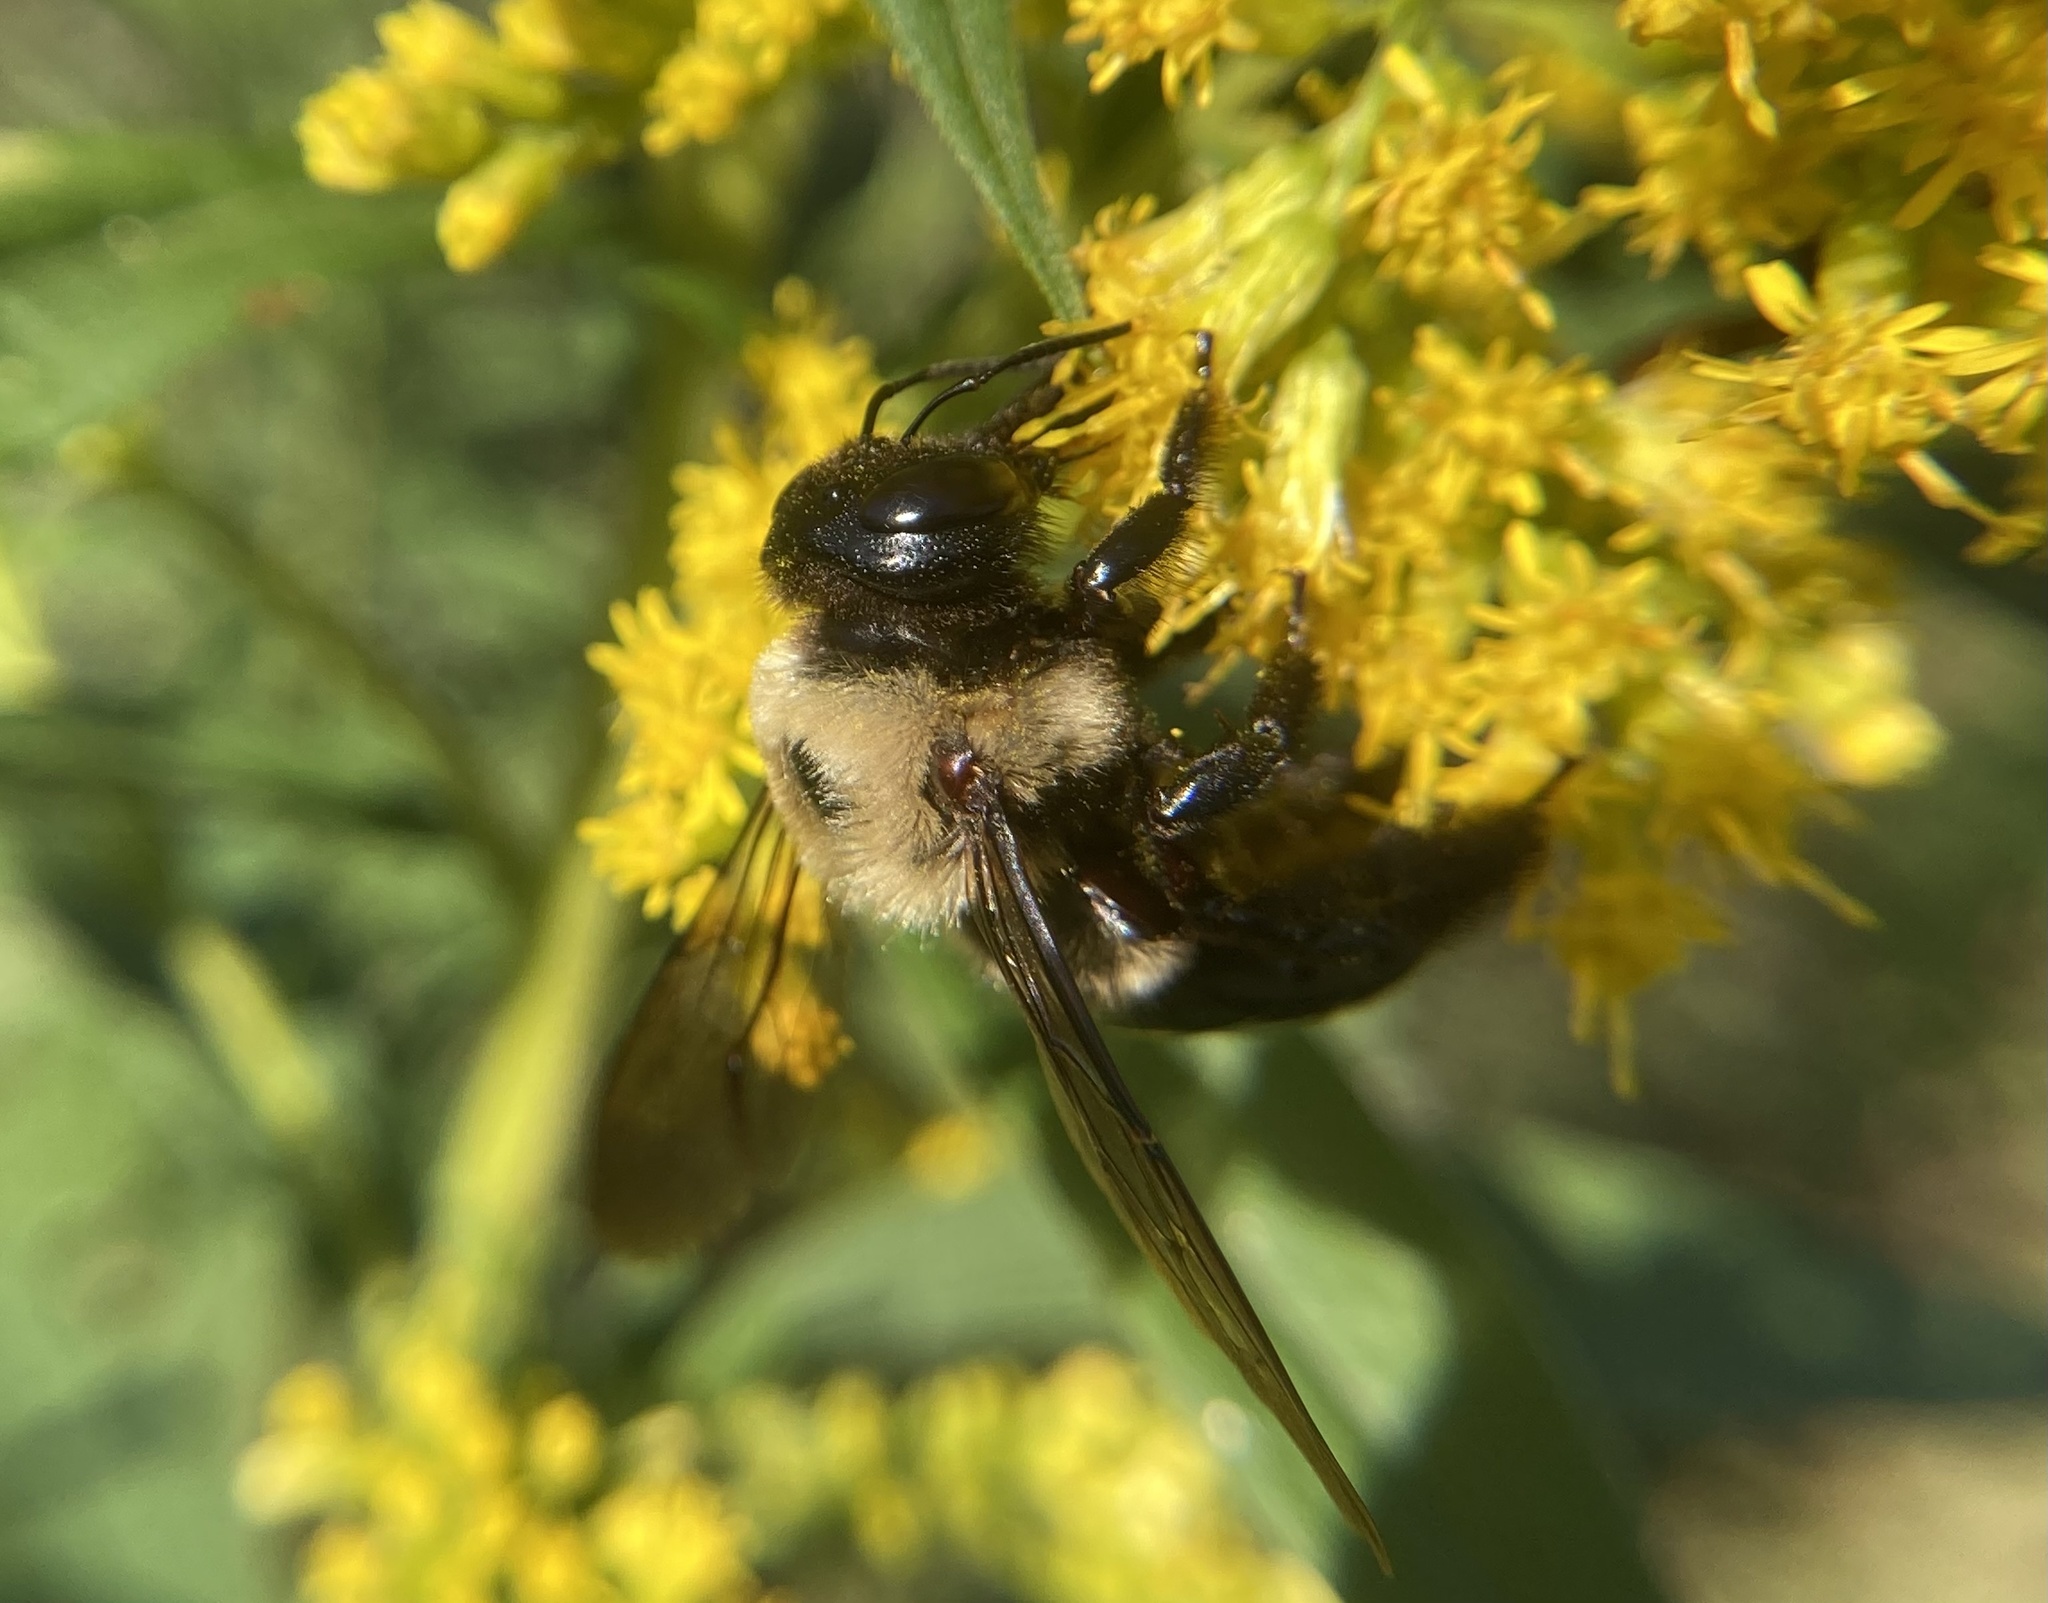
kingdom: Animalia
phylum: Arthropoda
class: Insecta
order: Hymenoptera
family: Apidae
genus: Xylocopa
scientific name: Xylocopa virginica
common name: Carpenter bee
